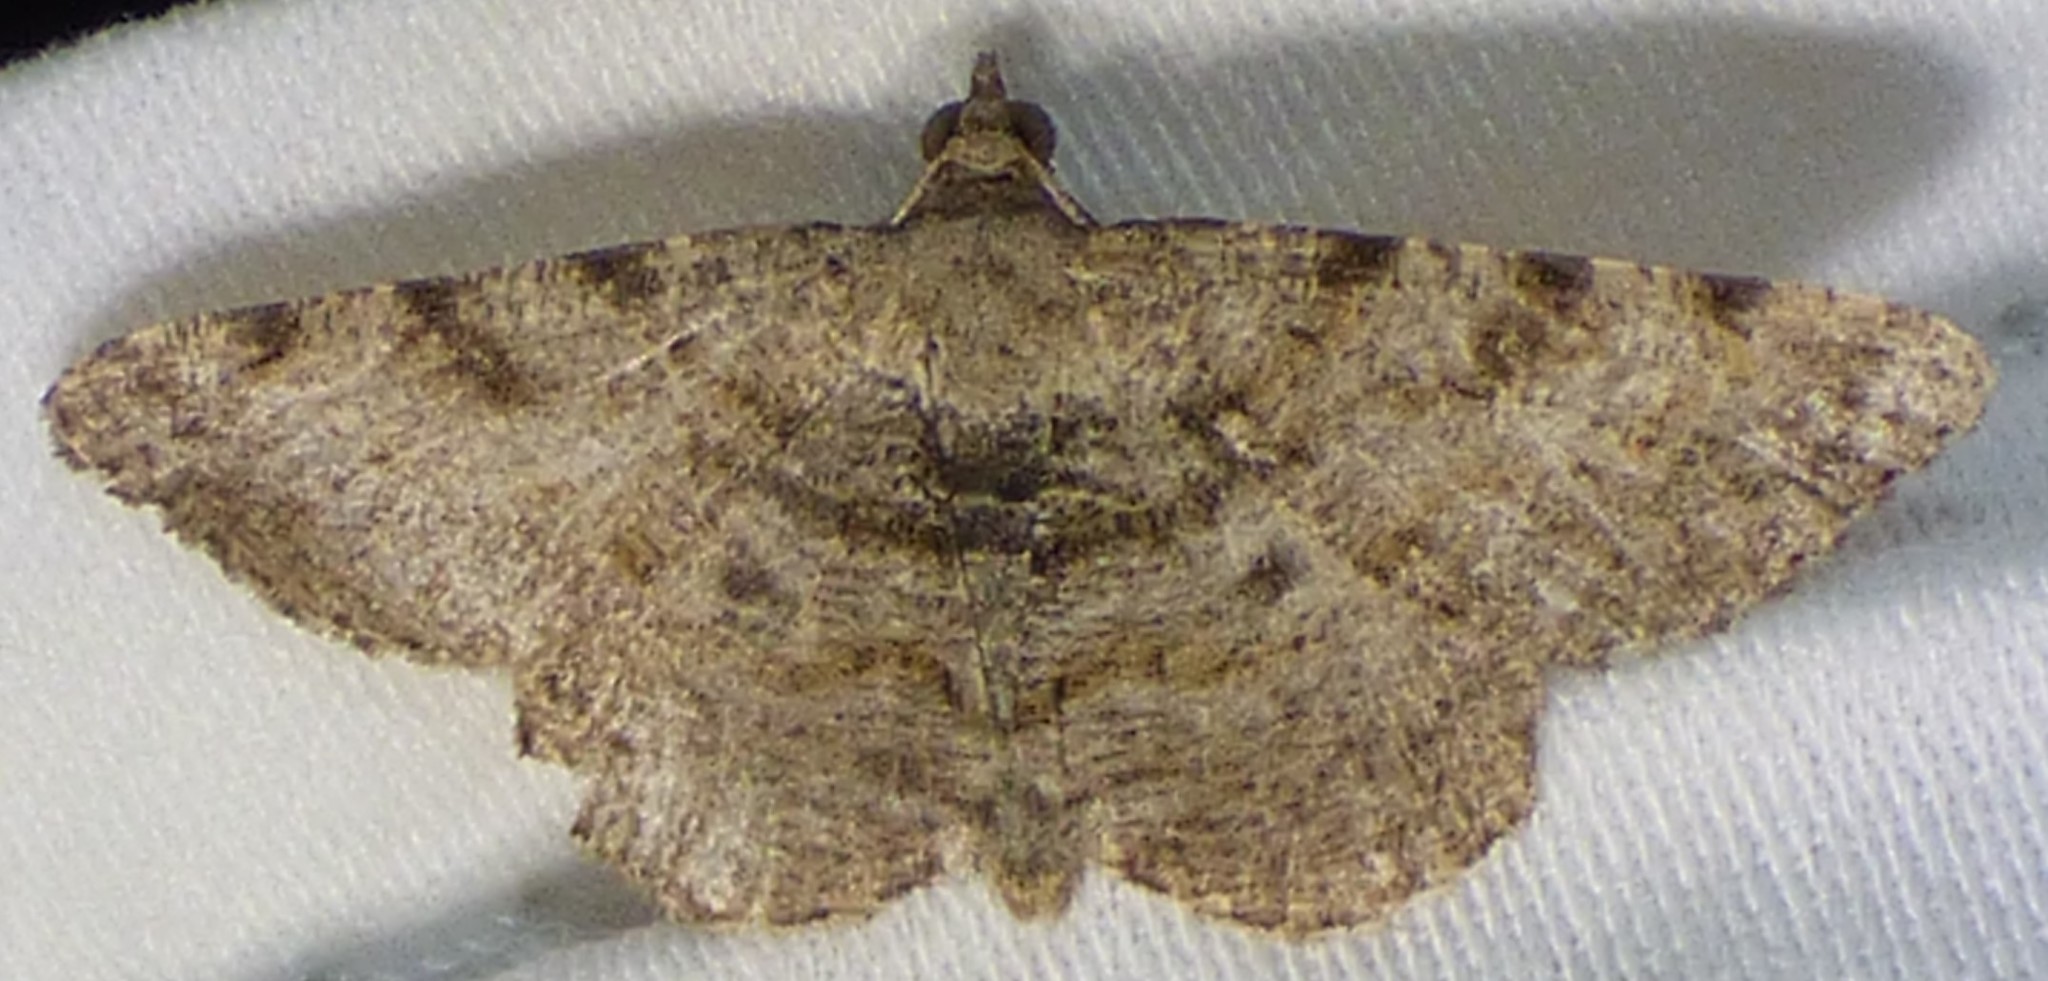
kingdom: Animalia
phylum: Arthropoda
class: Insecta
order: Lepidoptera
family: Geometridae
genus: Digrammia
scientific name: Digrammia gnophosaria
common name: Hollow-spotted angle
